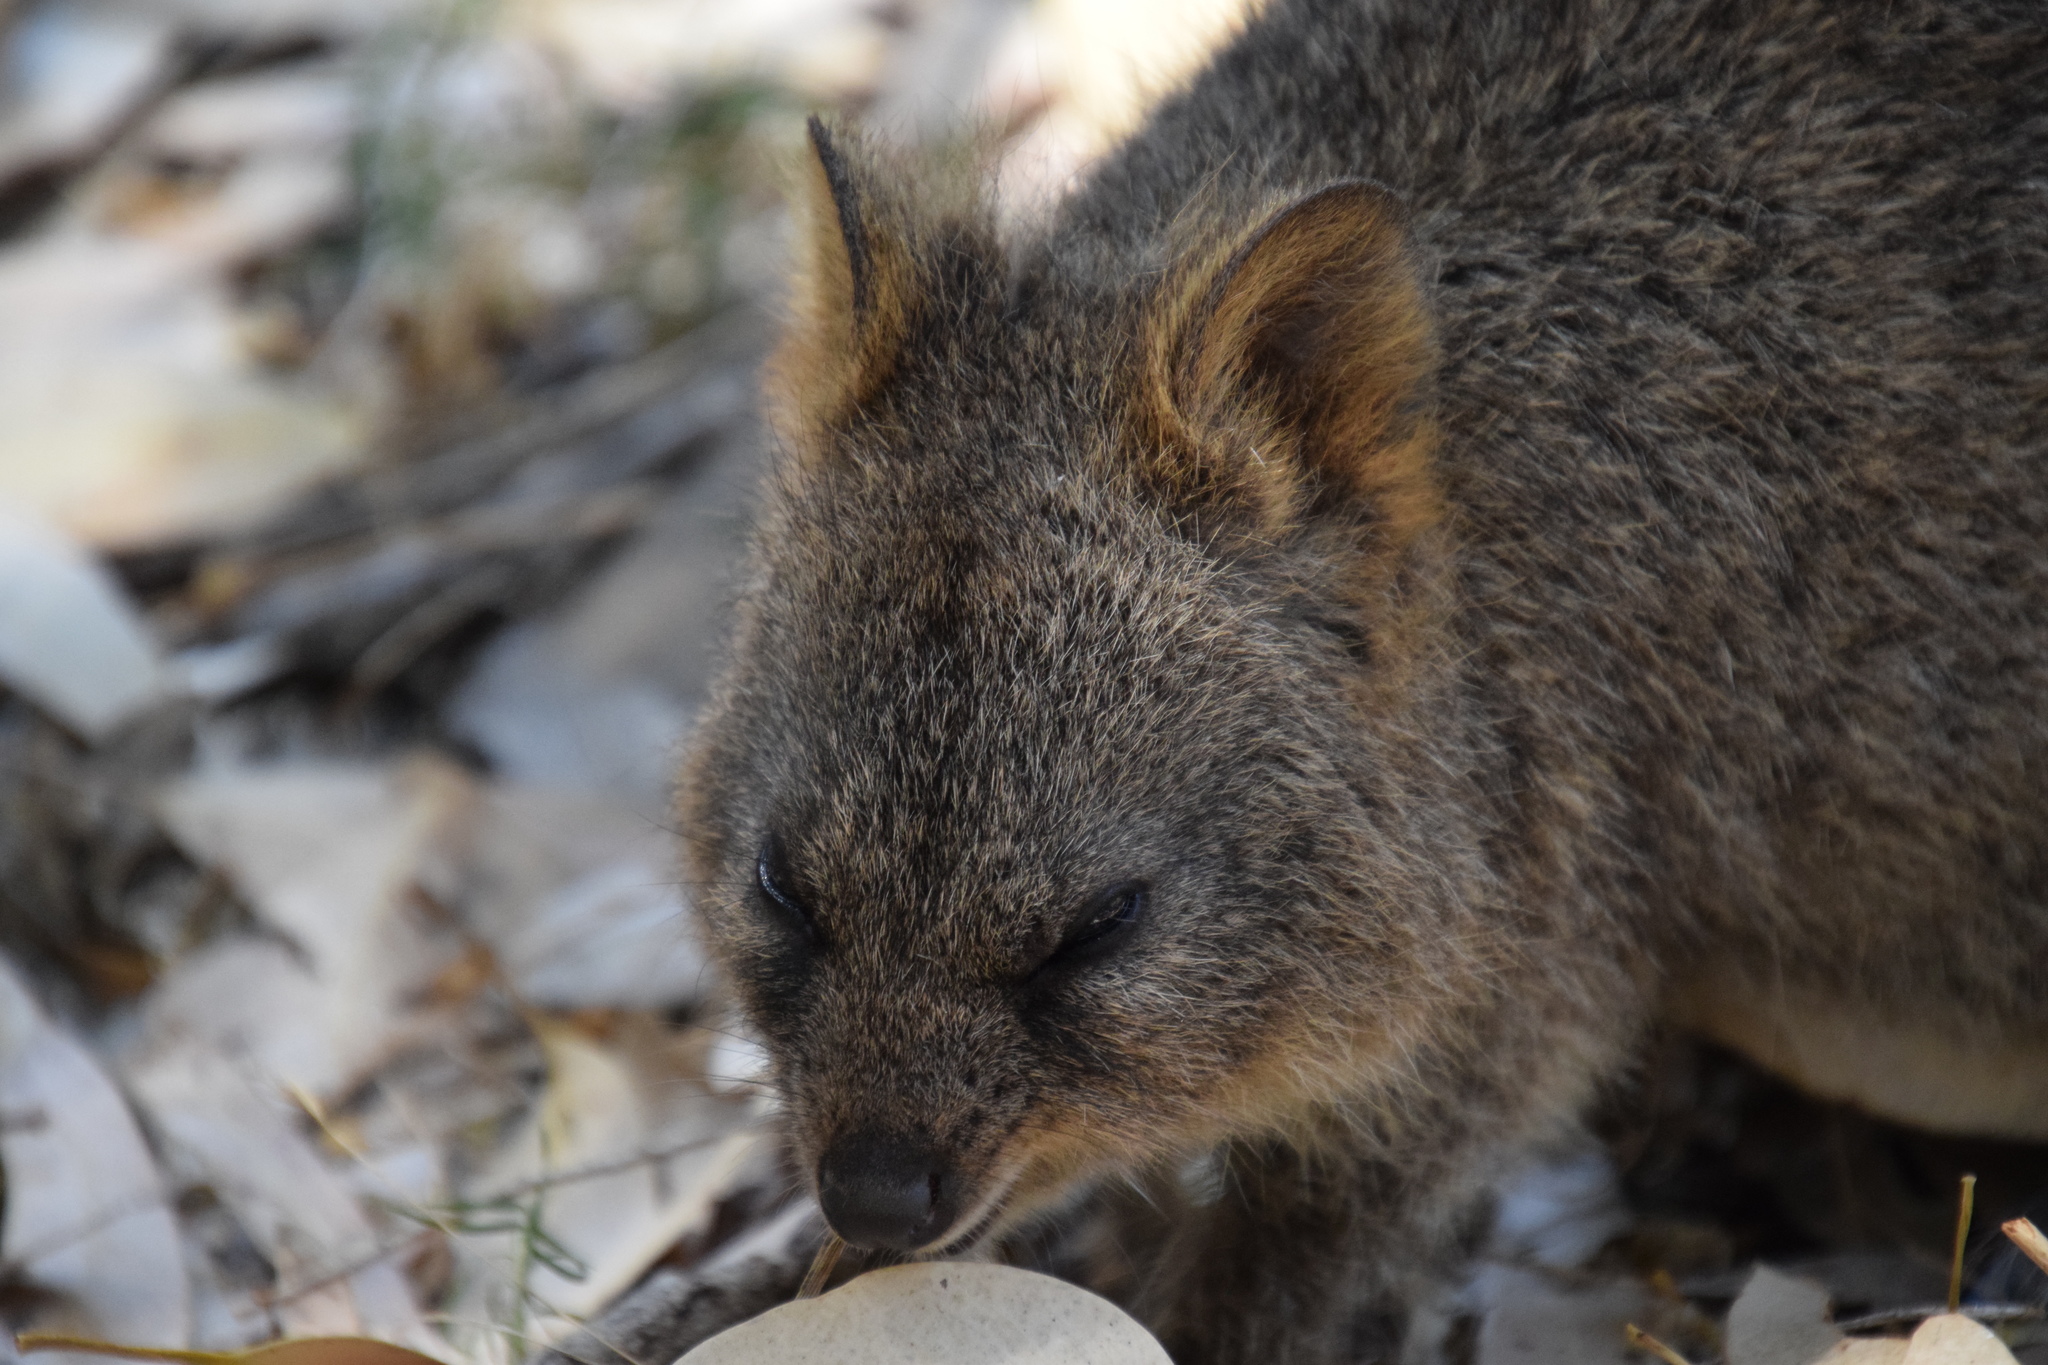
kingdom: Animalia
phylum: Chordata
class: Mammalia
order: Diprotodontia
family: Macropodidae
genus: Setonix
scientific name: Setonix brachyurus
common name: Quokka
